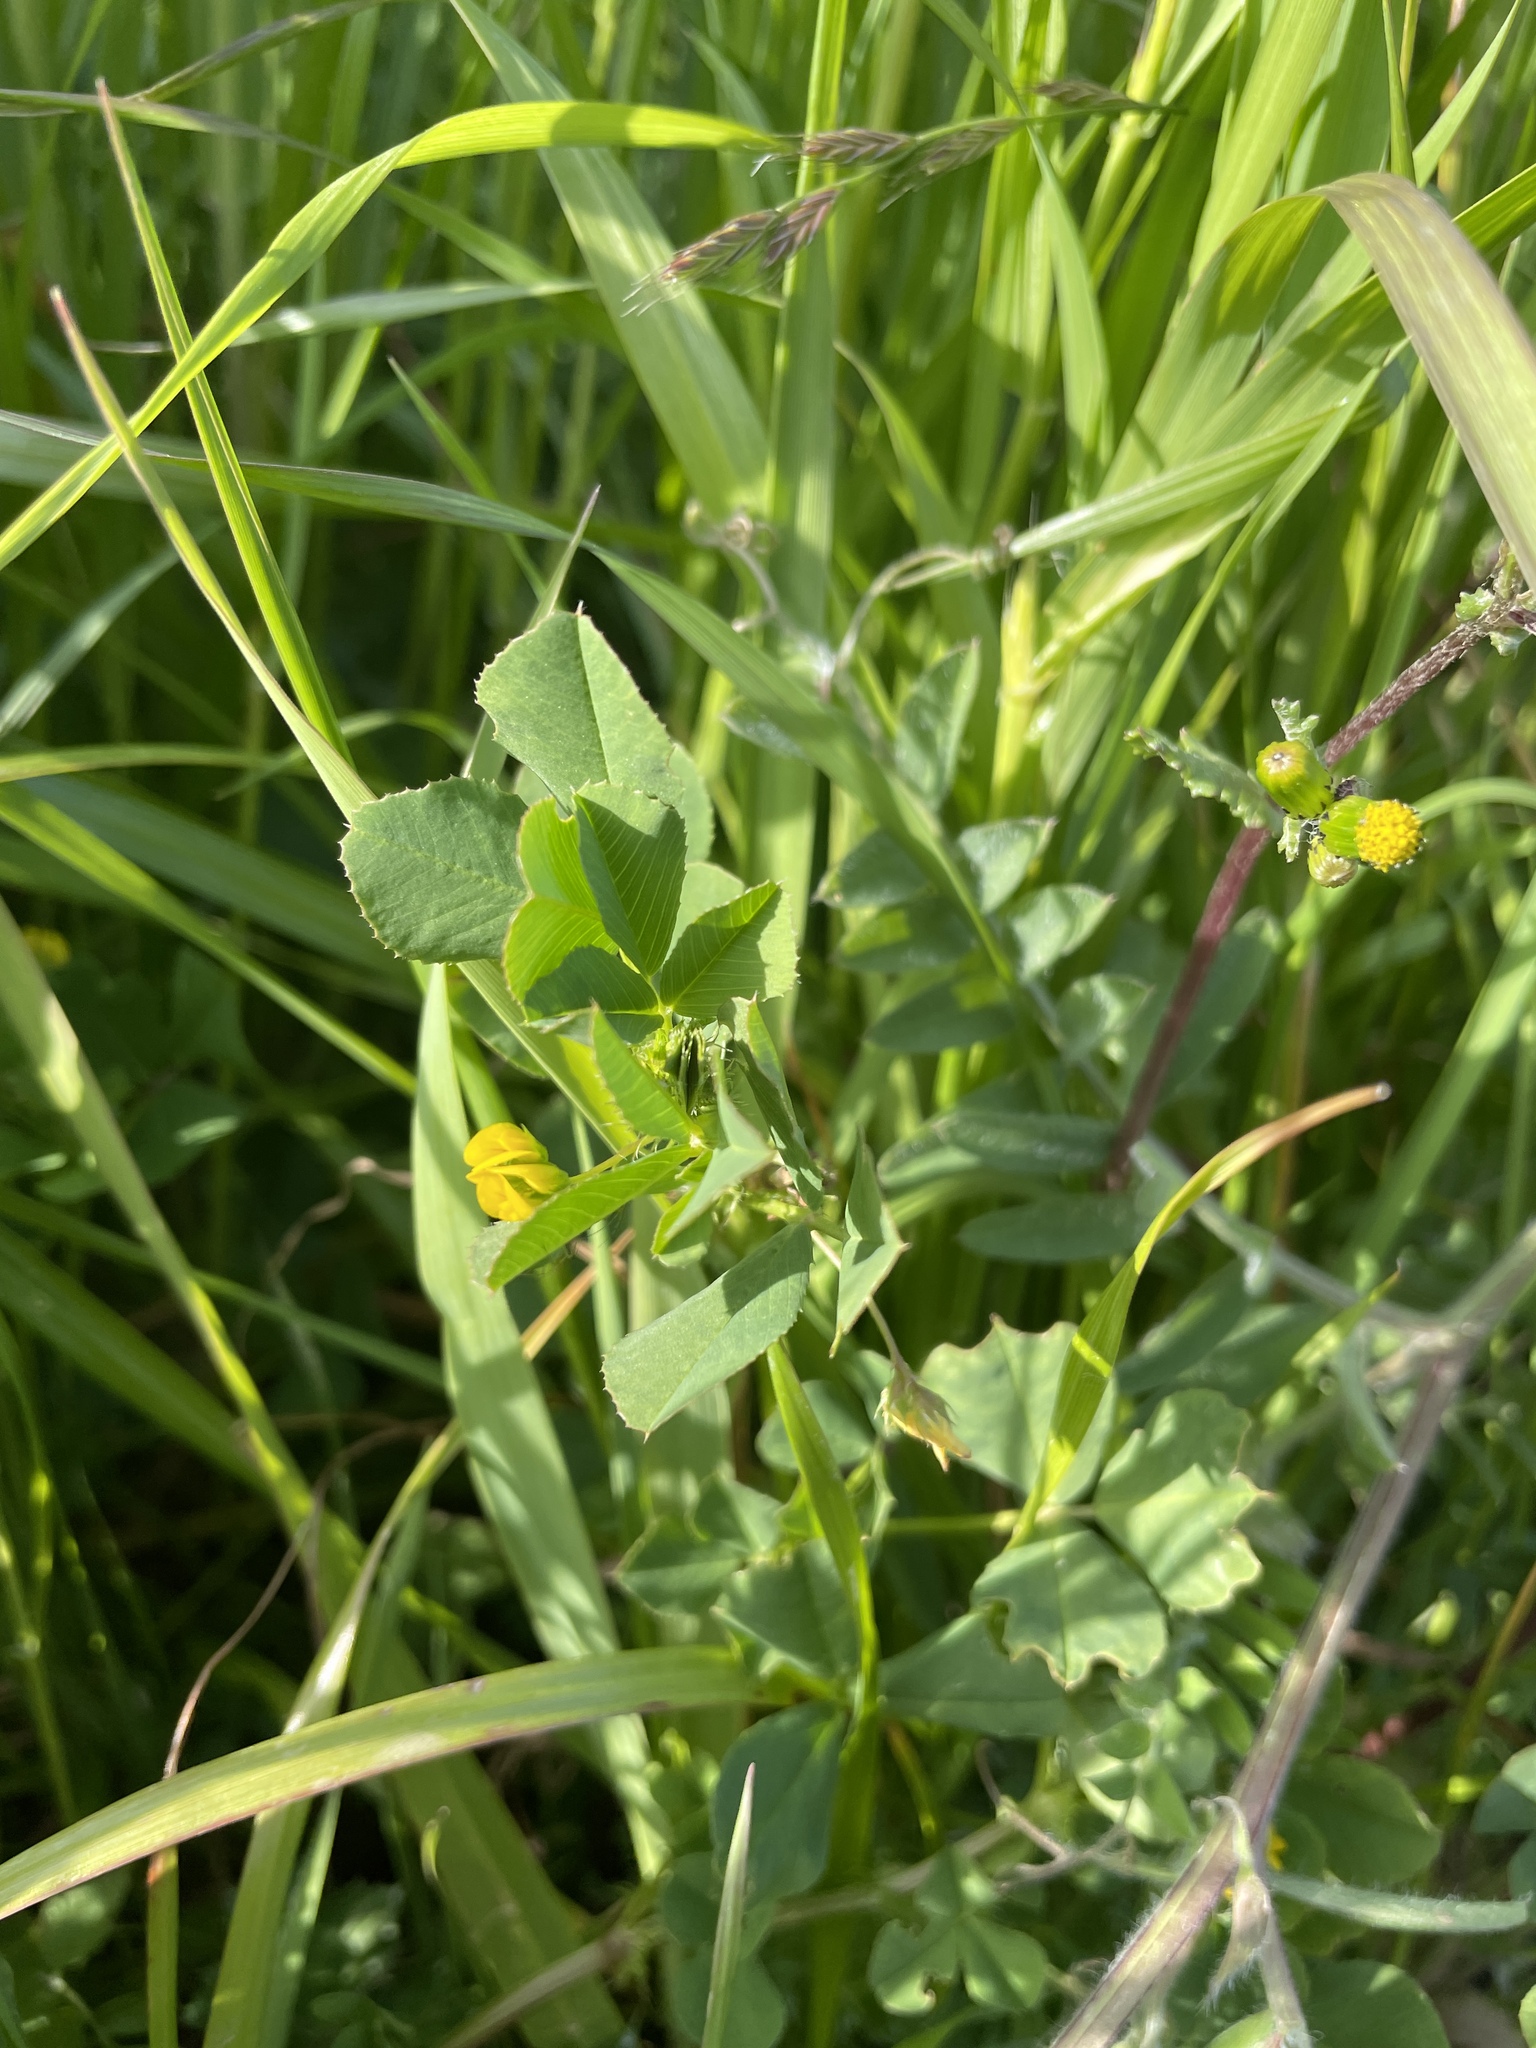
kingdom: Plantae
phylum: Tracheophyta
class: Magnoliopsida
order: Fabales
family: Fabaceae
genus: Medicago
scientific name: Medicago polymorpha
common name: Burclover
